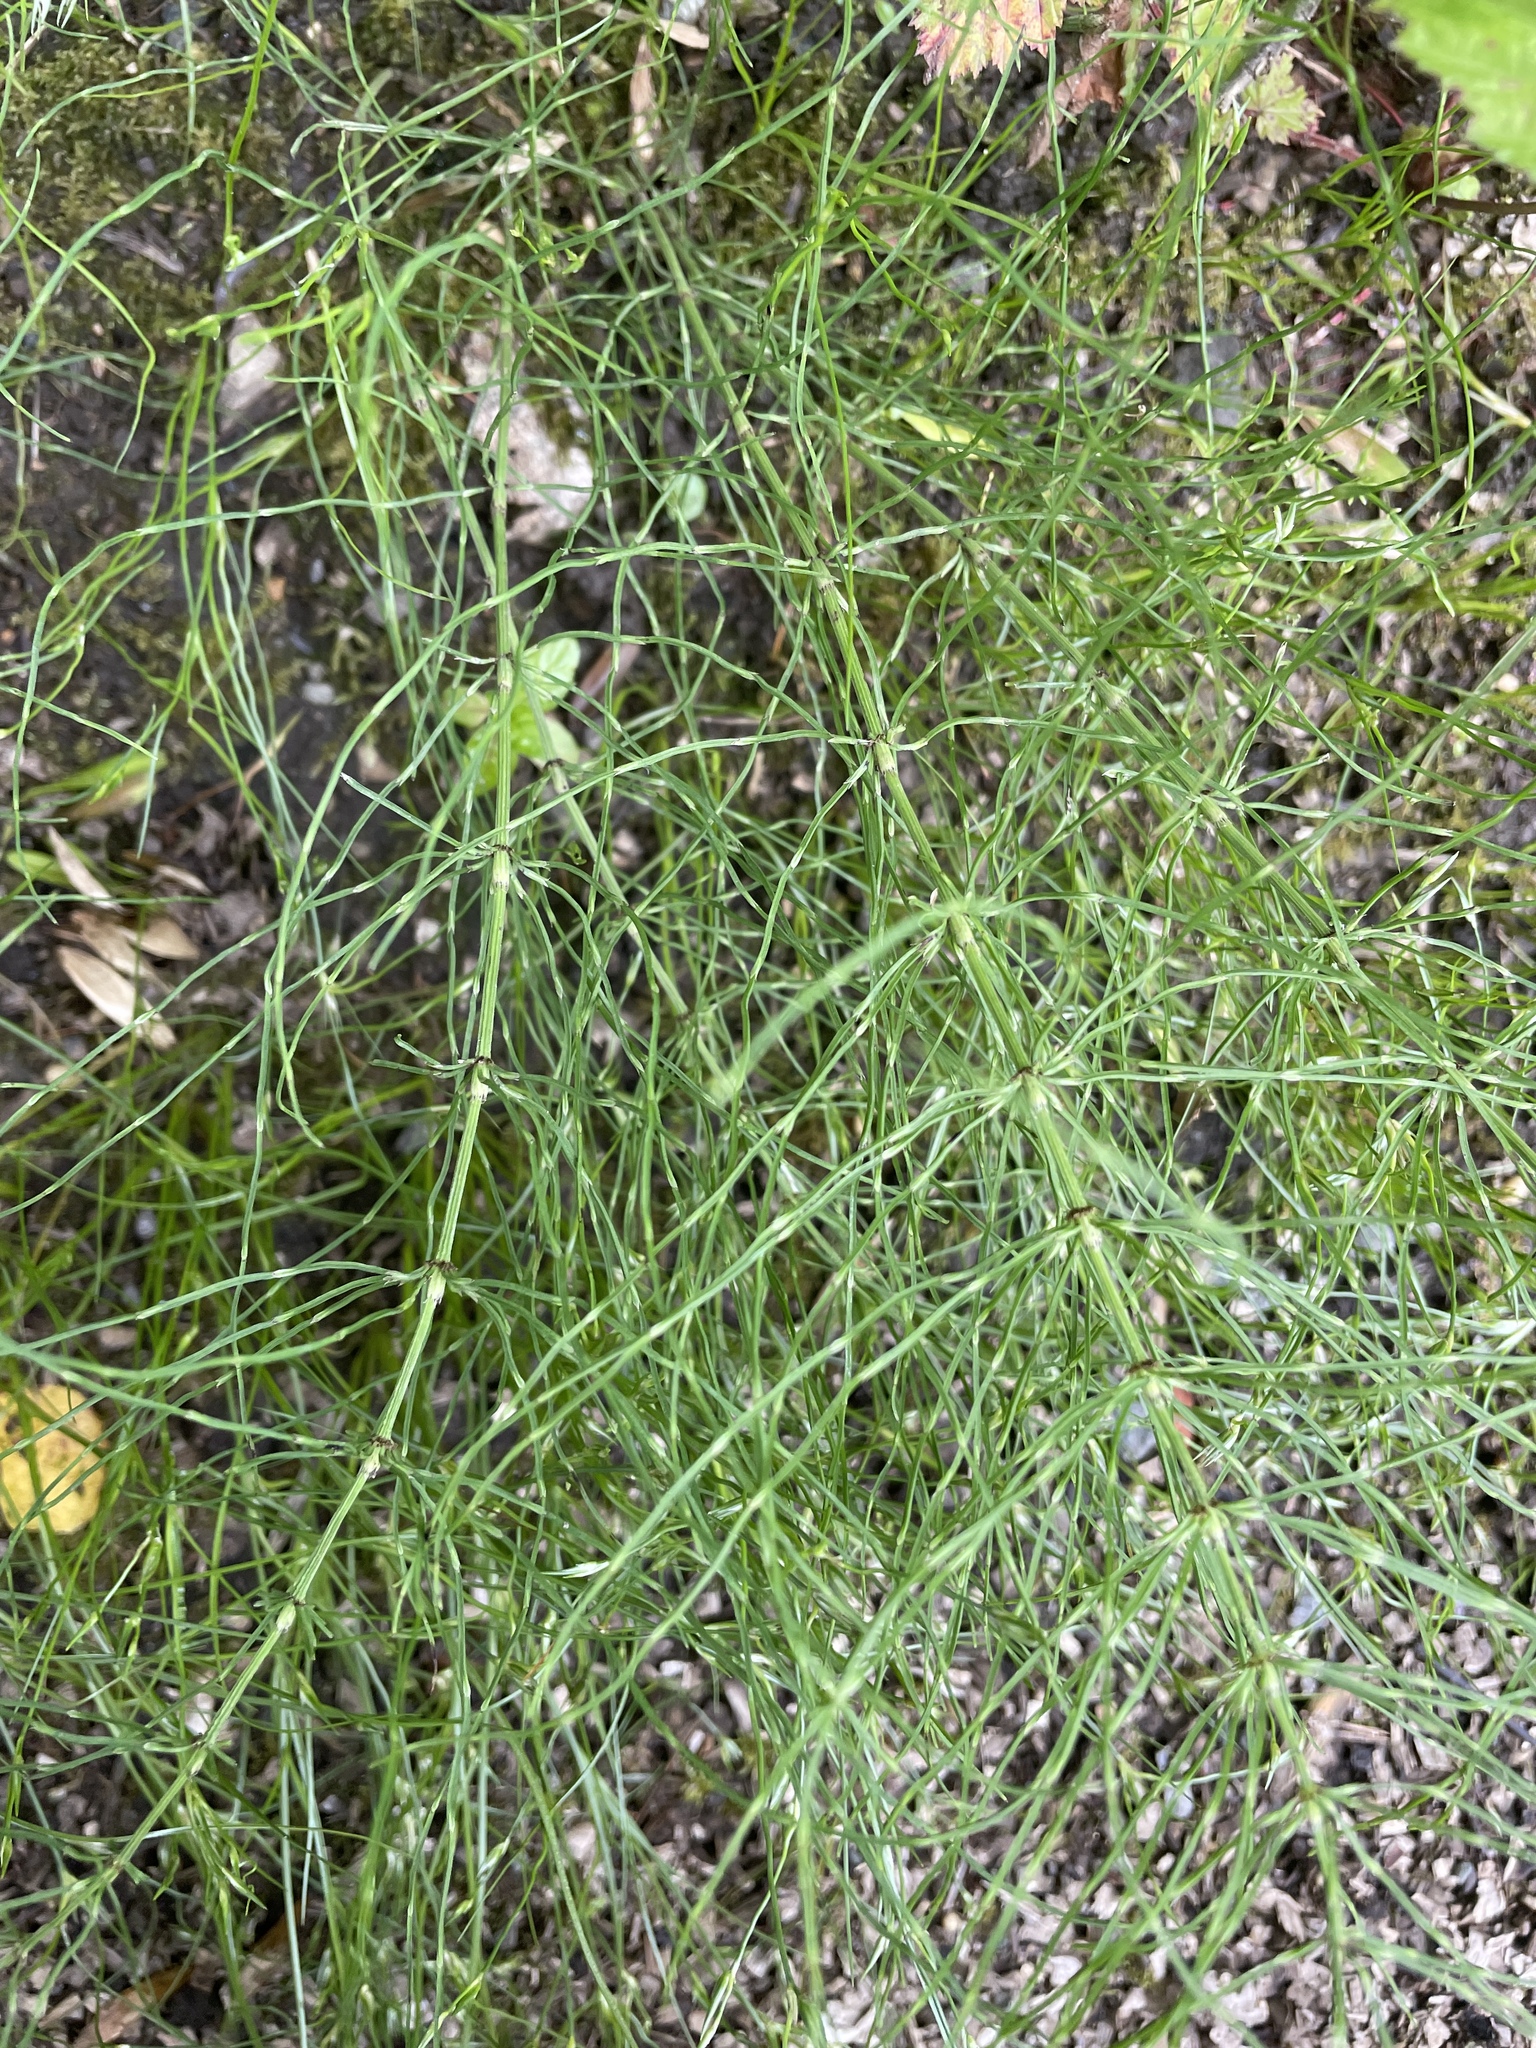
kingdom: Plantae
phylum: Tracheophyta
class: Polypodiopsida
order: Equisetales
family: Equisetaceae
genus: Equisetum
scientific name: Equisetum arvense
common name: Field horsetail
